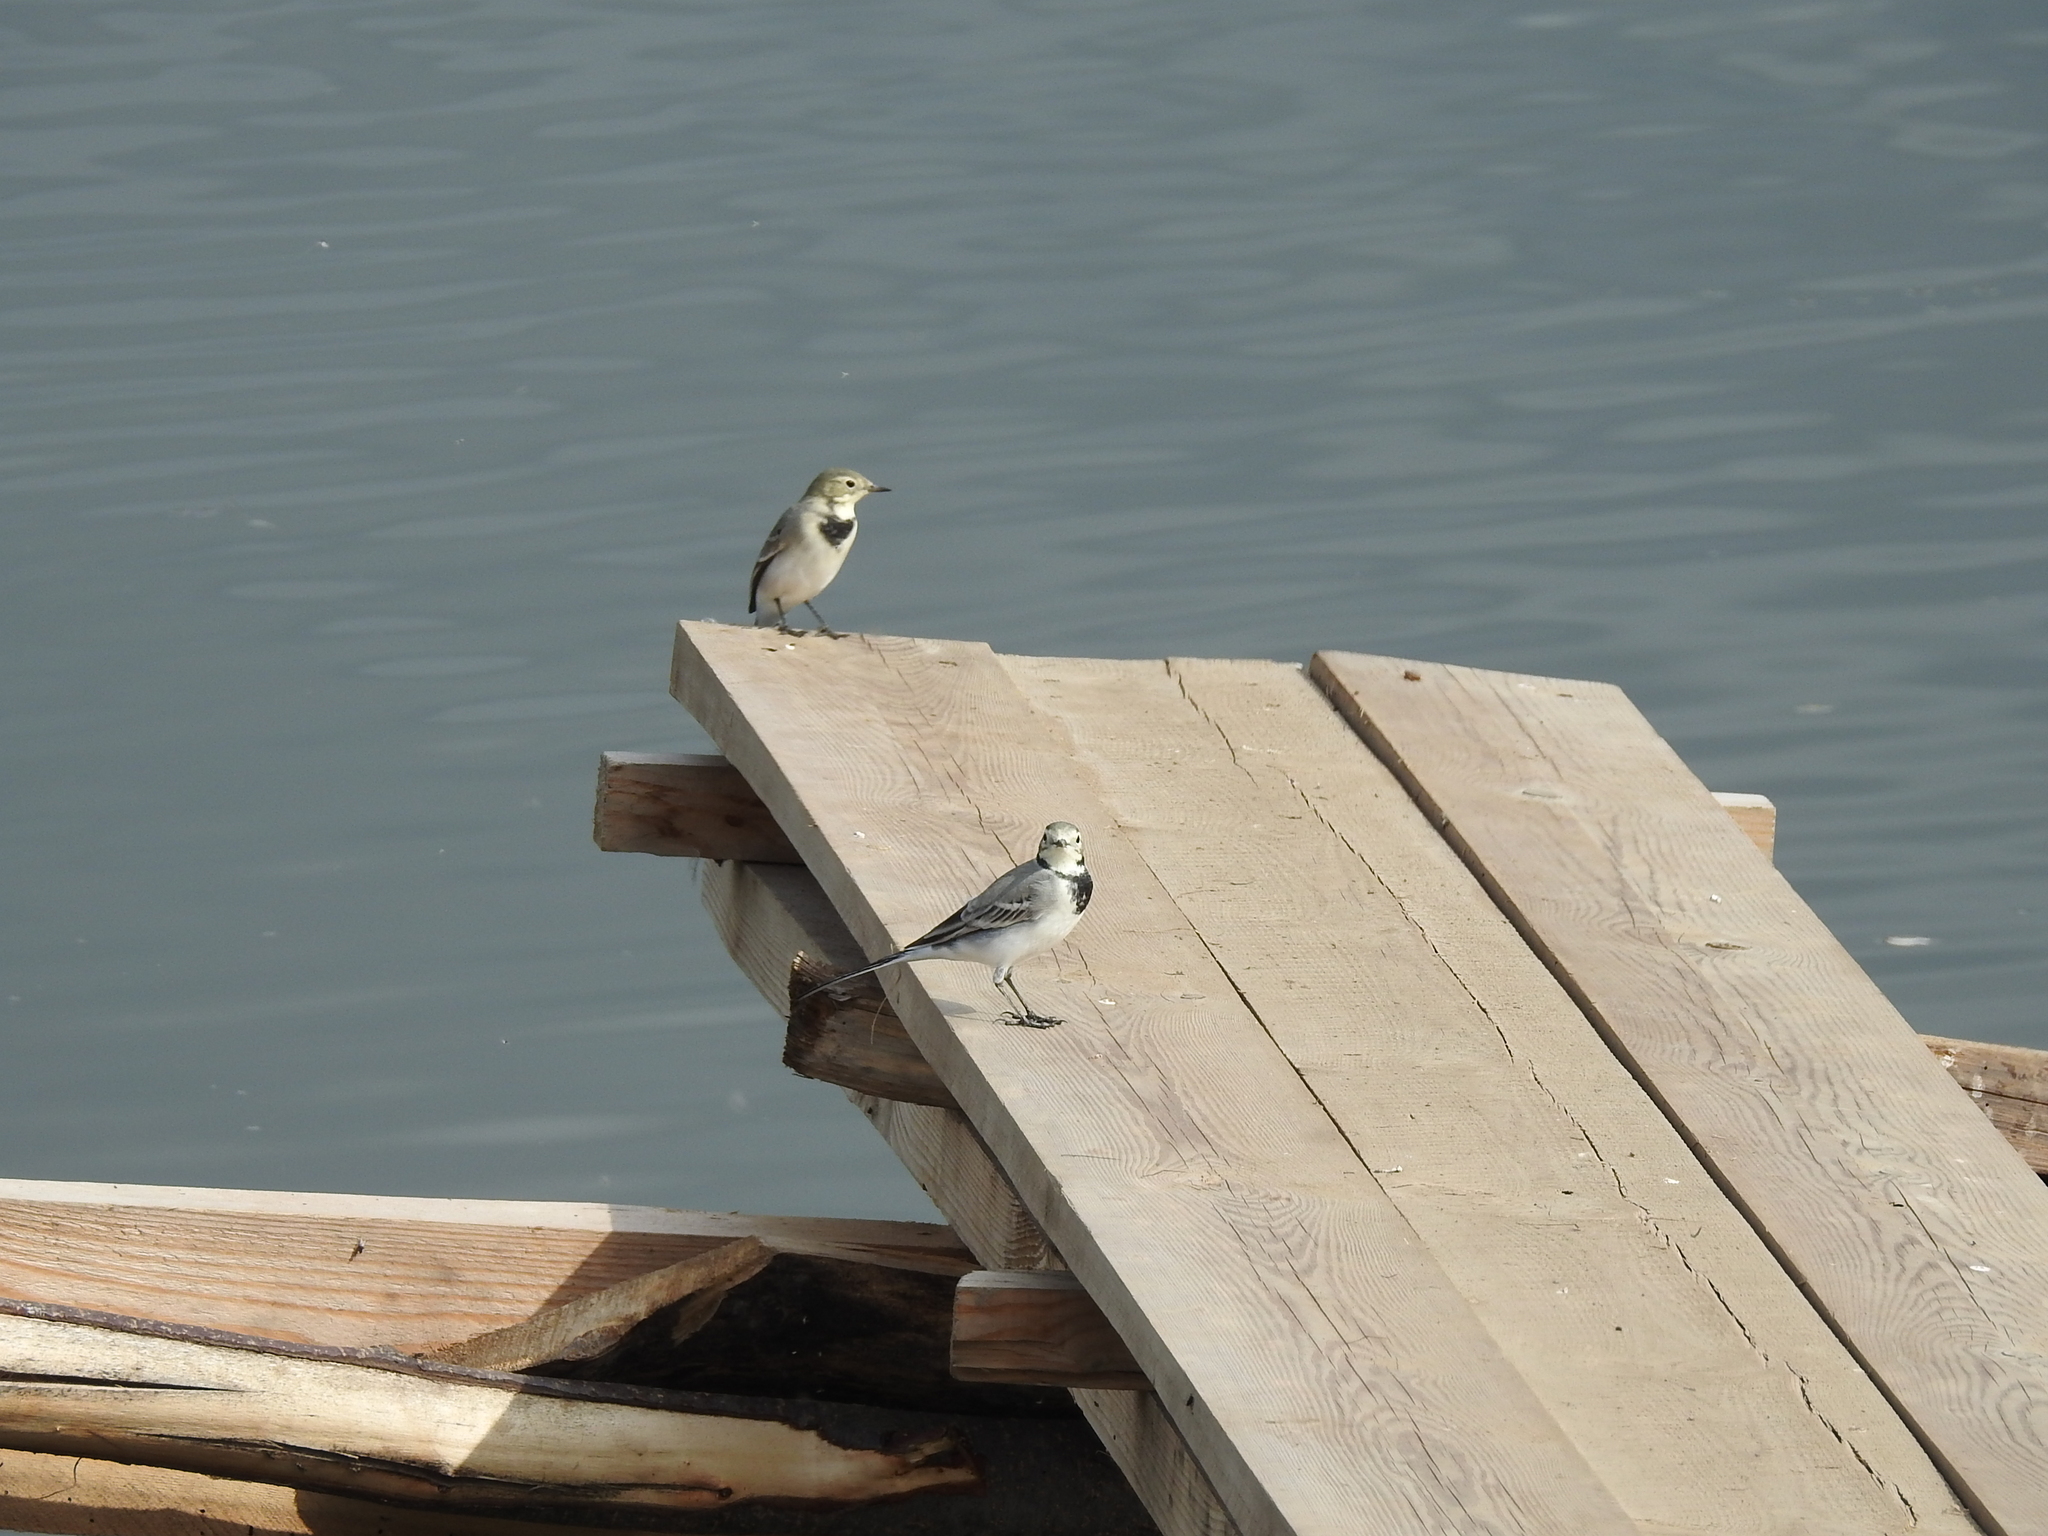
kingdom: Animalia
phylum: Chordata
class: Aves
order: Passeriformes
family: Motacillidae
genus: Motacilla
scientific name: Motacilla alba
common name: White wagtail
